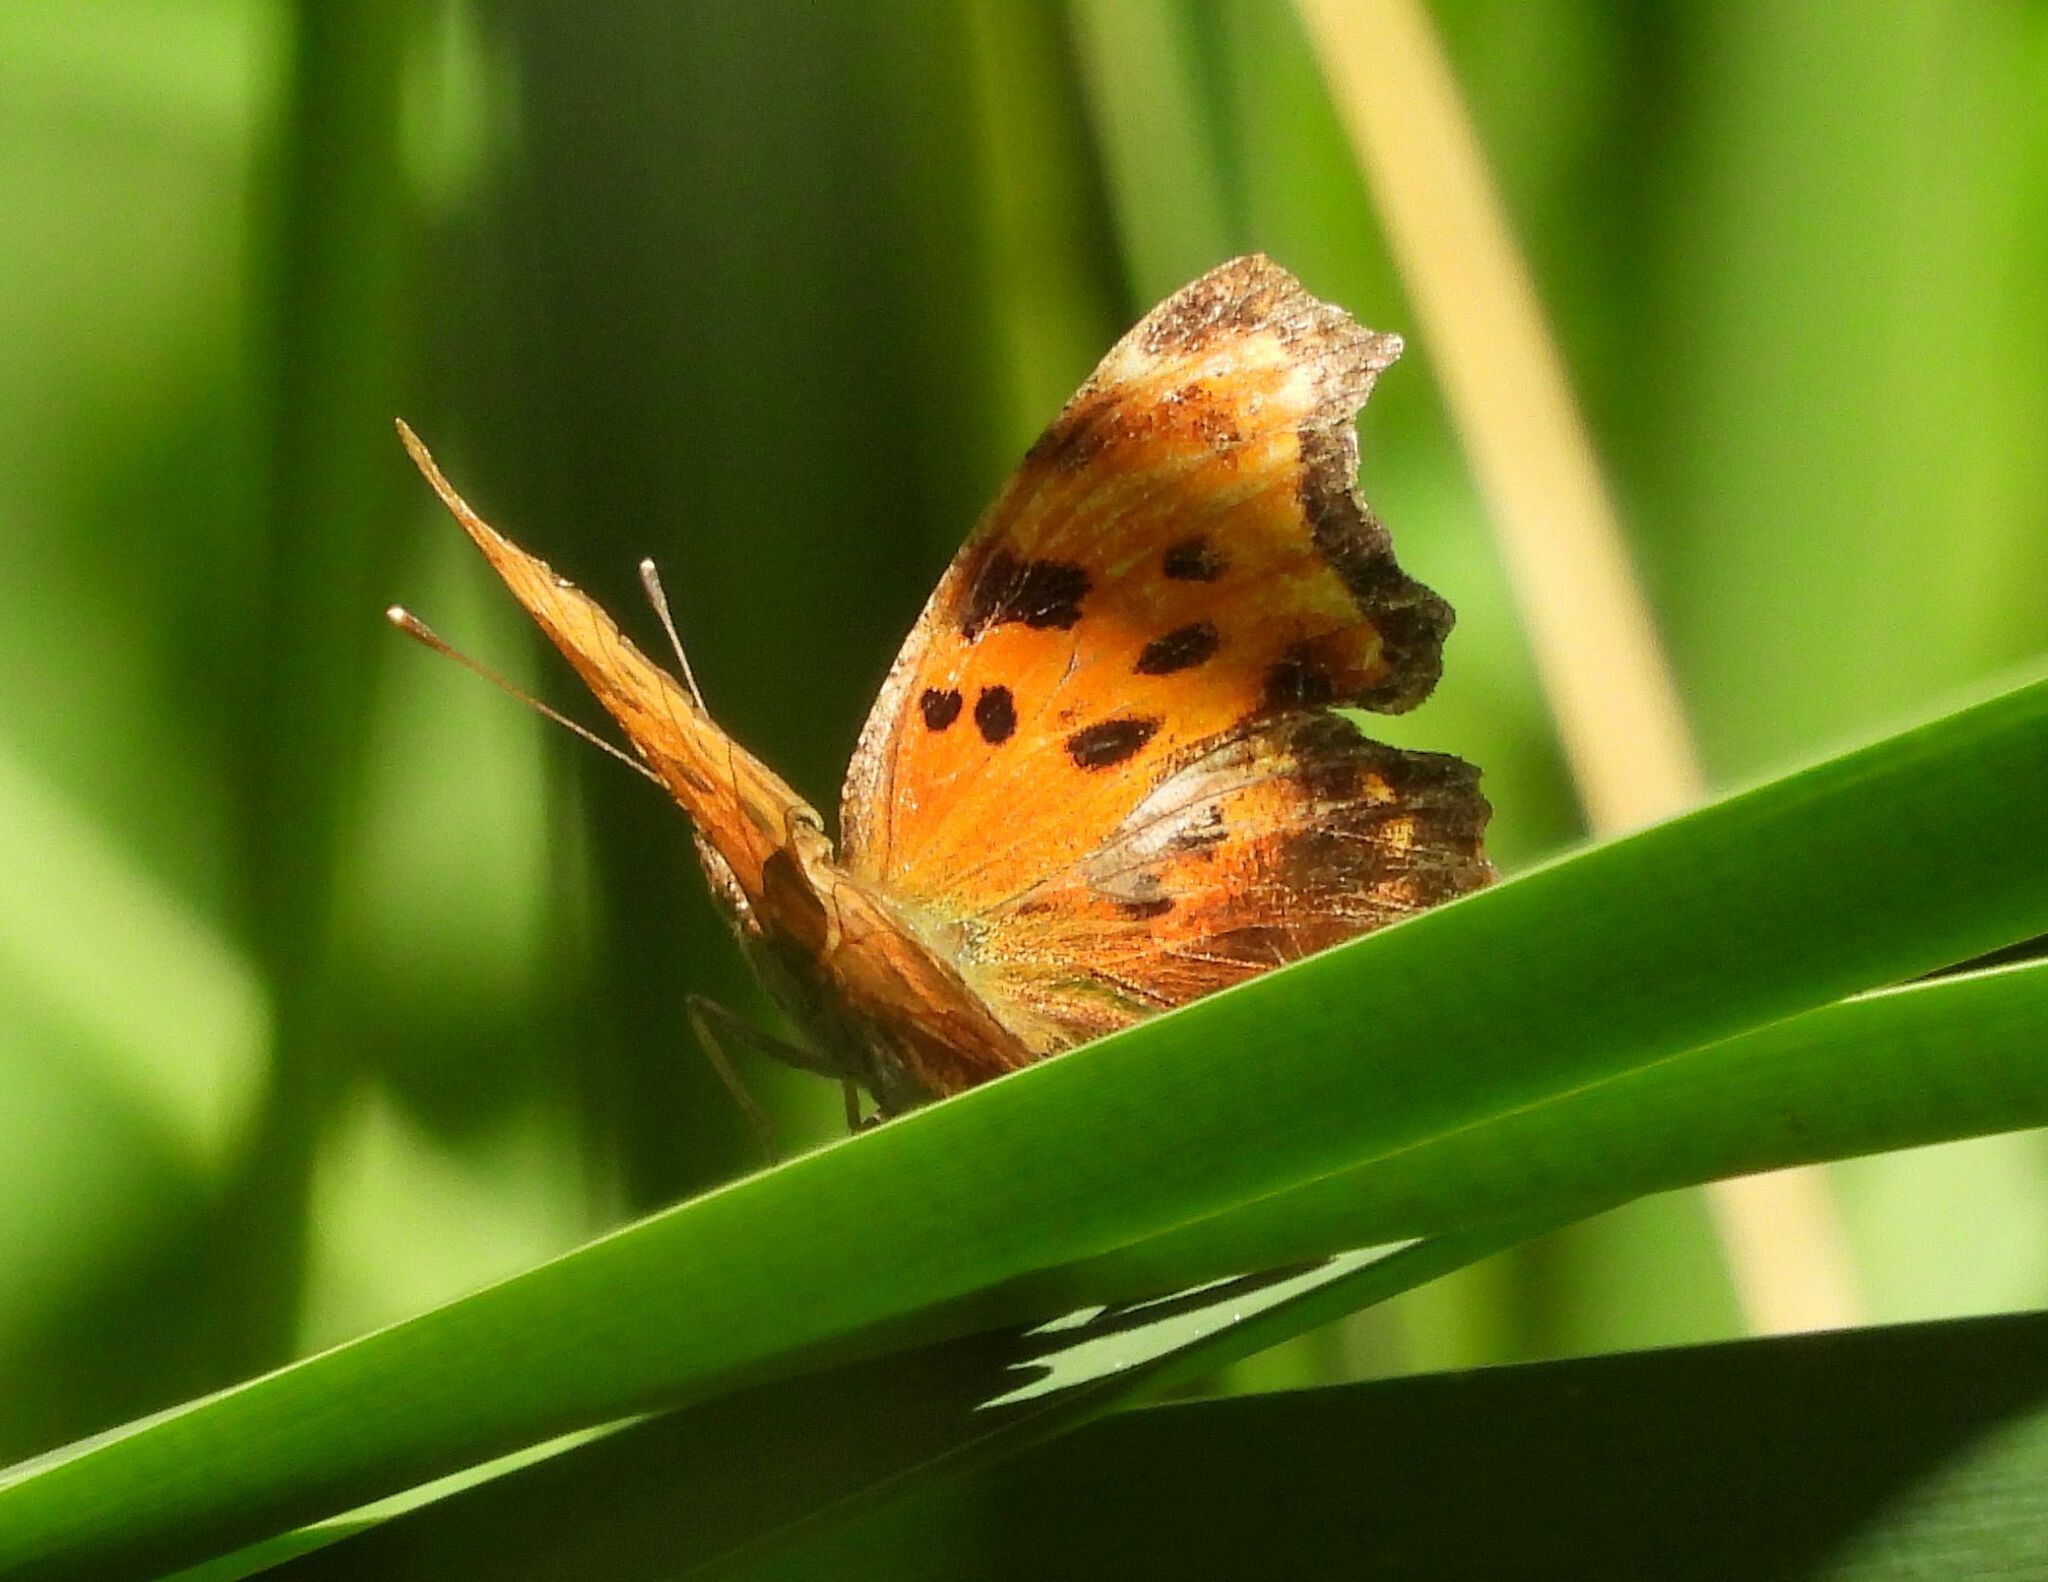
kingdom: Animalia
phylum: Arthropoda
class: Insecta
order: Lepidoptera
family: Nymphalidae
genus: Polygonia
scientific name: Polygonia comma
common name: Eastern comma
